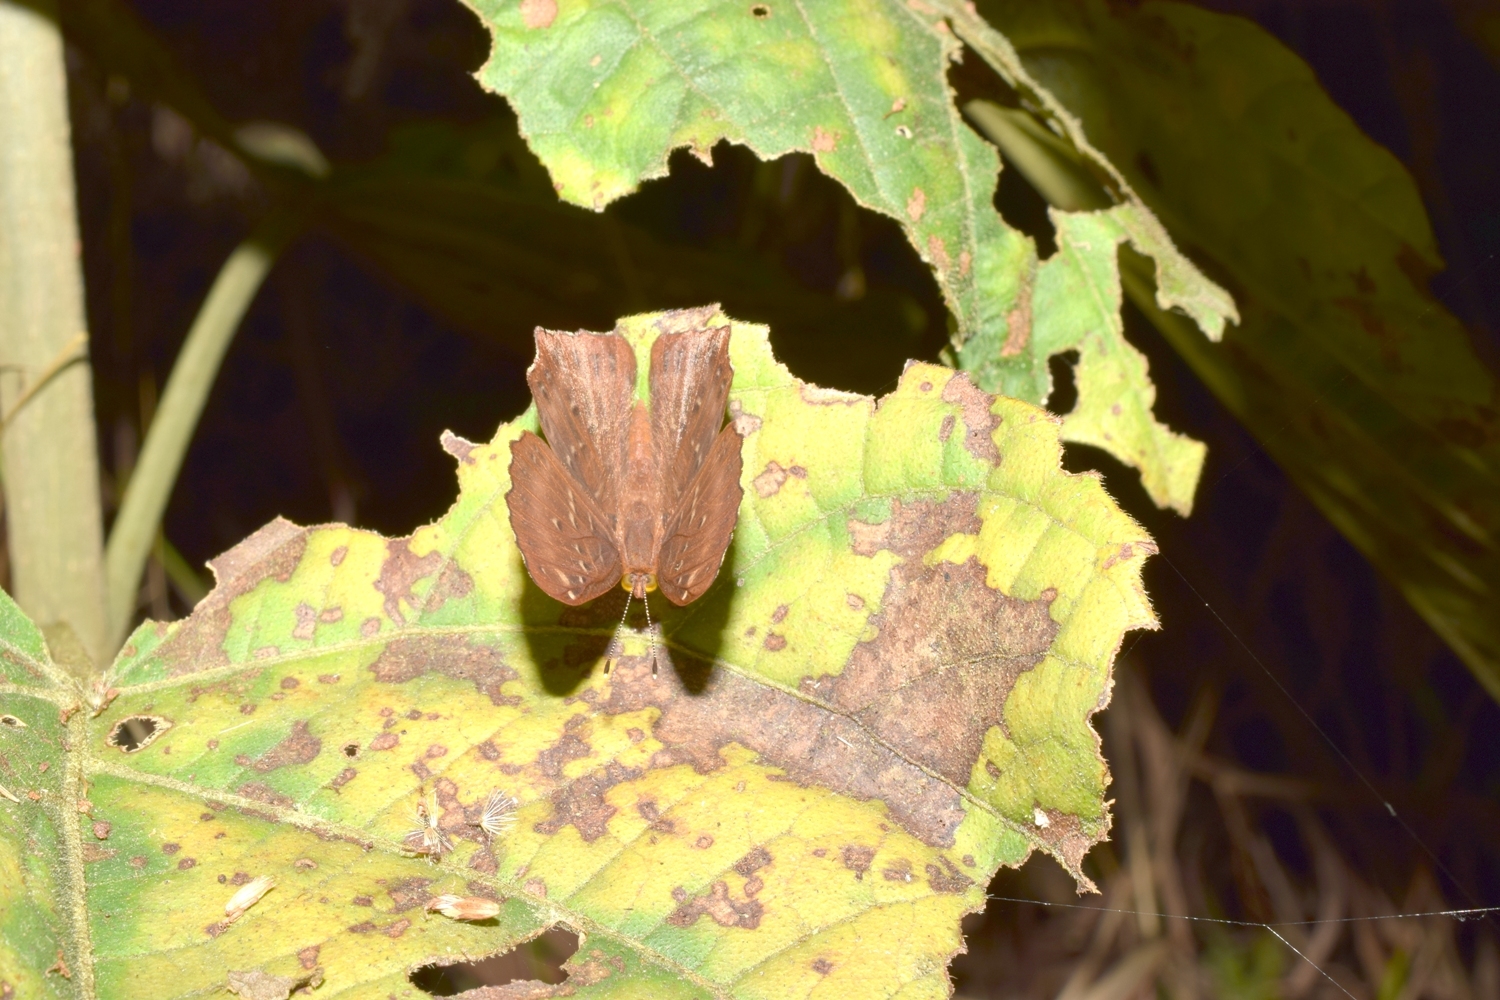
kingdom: Animalia
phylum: Arthropoda
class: Insecta
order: Lepidoptera
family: Riodinidae
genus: Zemeros
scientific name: Zemeros flegyas
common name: Punchinello
